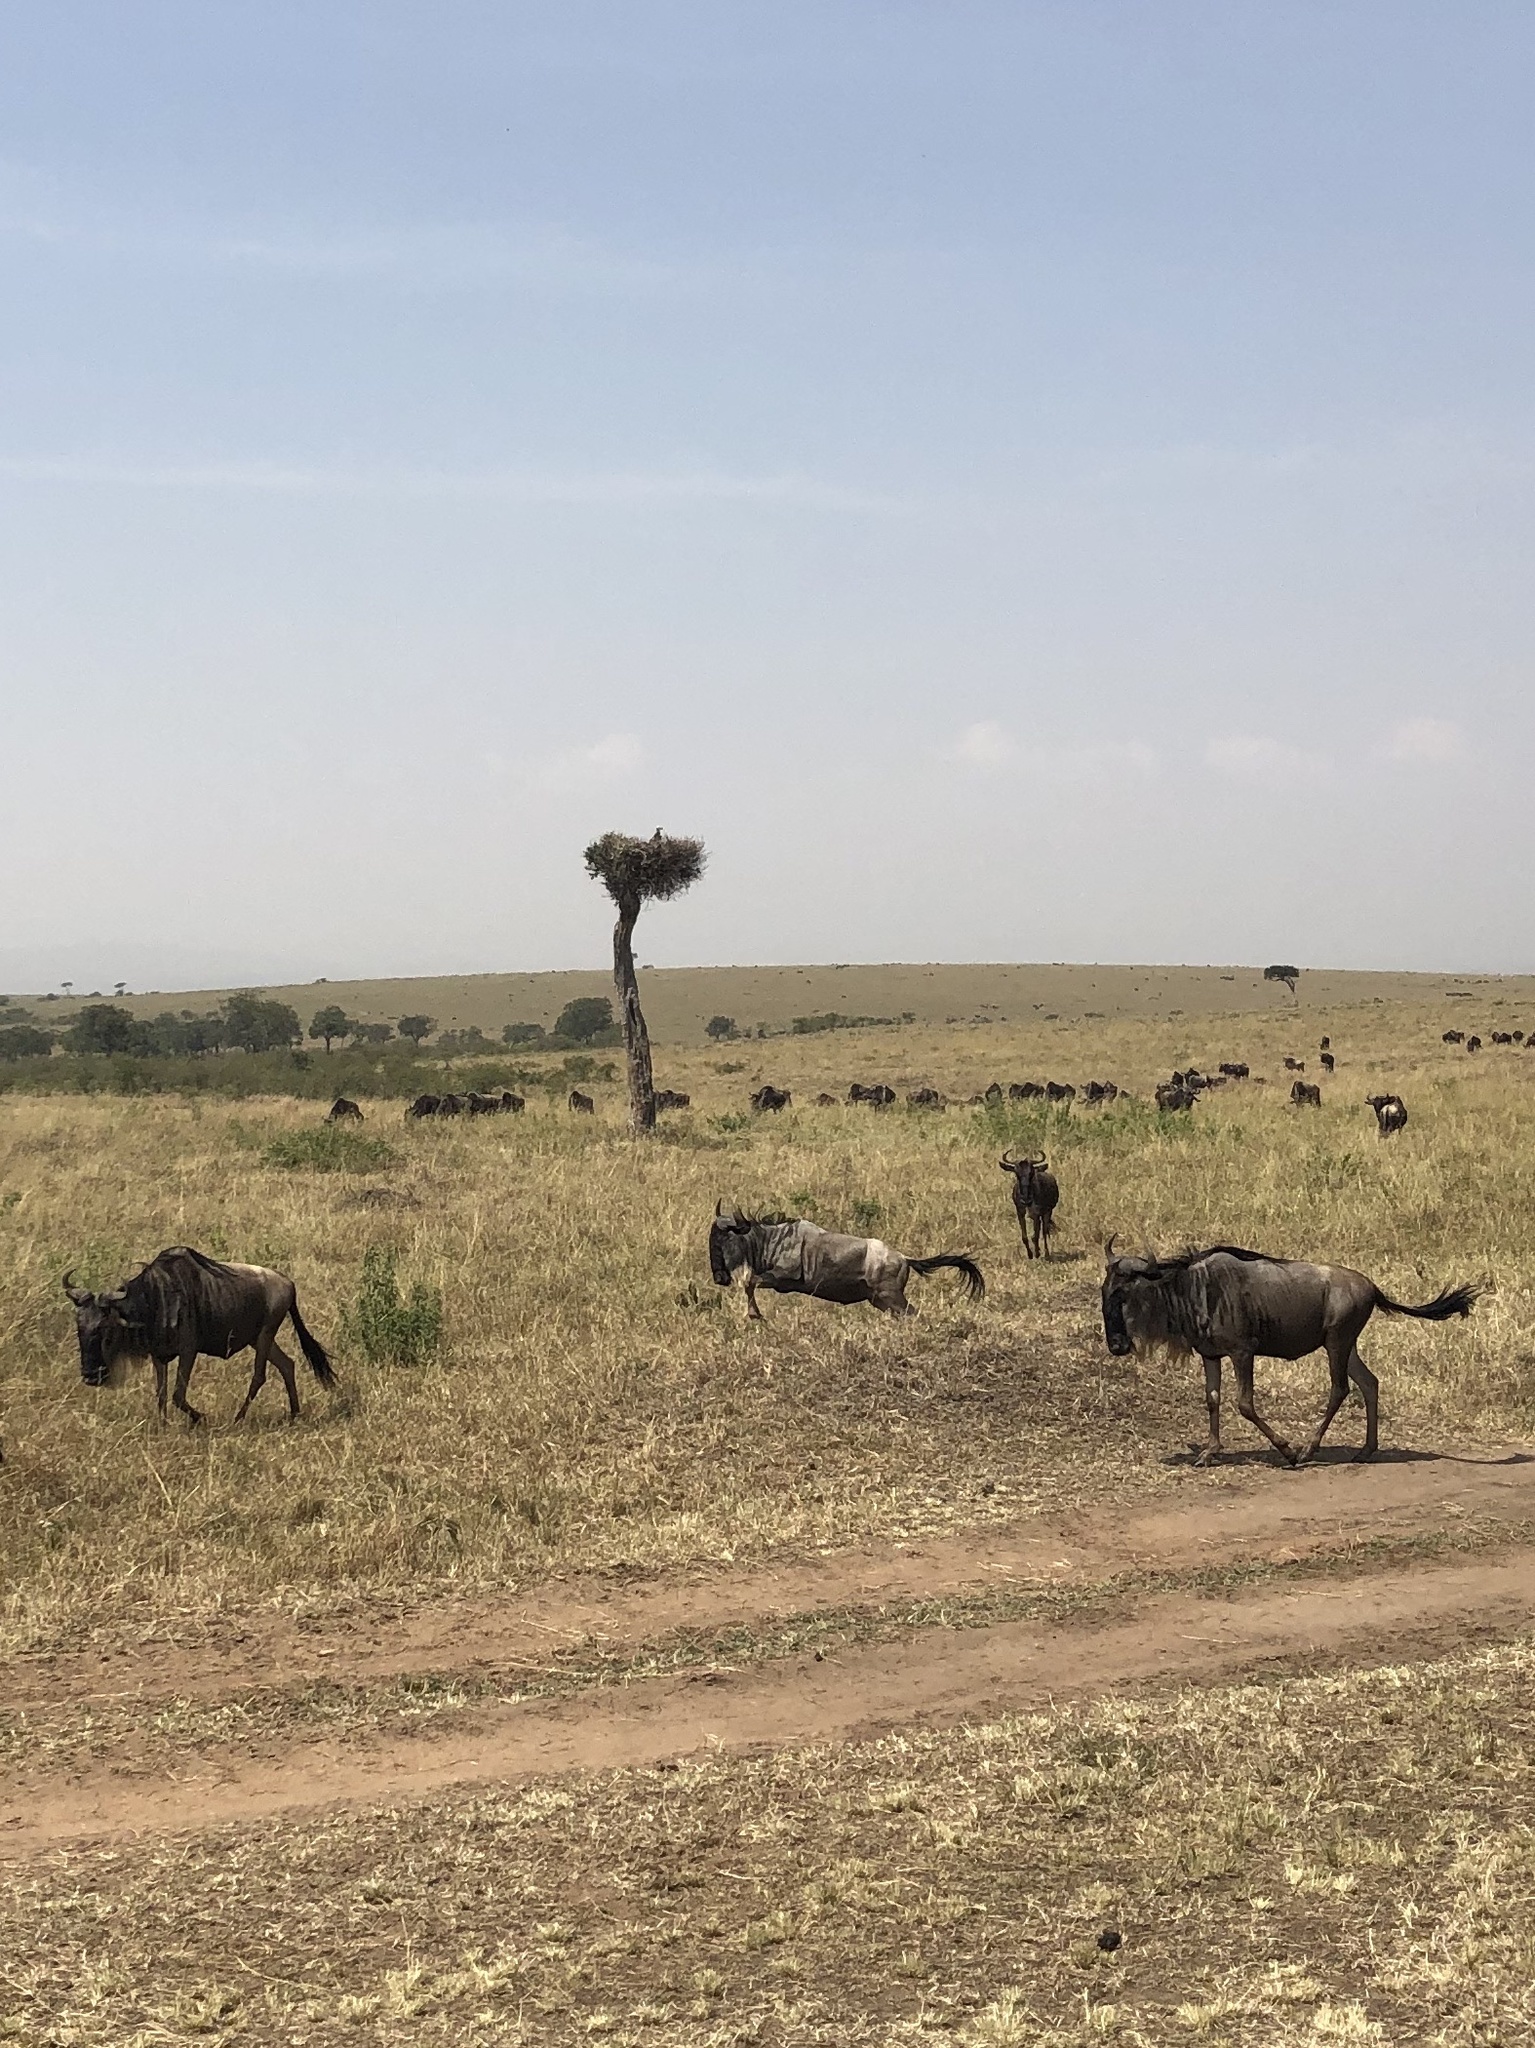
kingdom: Animalia
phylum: Chordata
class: Mammalia
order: Artiodactyla
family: Bovidae
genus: Connochaetes
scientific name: Connochaetes taurinus
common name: Blue wildebeest
